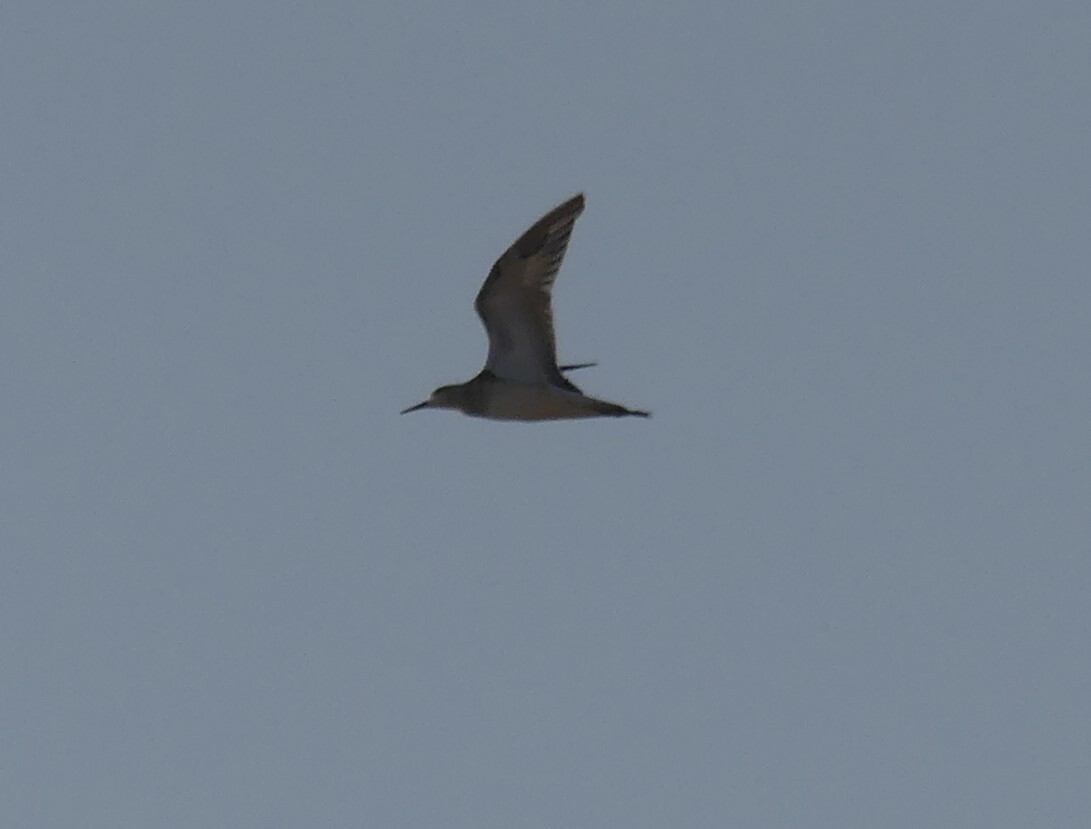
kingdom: Animalia
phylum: Chordata
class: Aves
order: Charadriiformes
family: Scolopacidae
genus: Calidris
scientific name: Calidris pugnax
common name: Ruff
